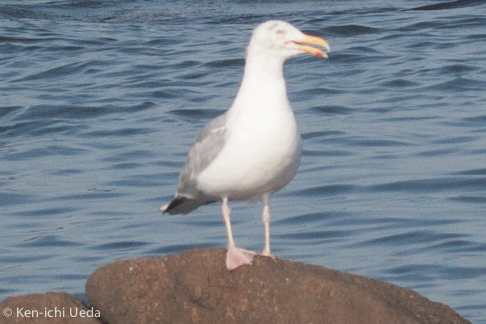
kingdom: Animalia
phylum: Chordata
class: Aves
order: Charadriiformes
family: Laridae
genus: Larus
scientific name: Larus argentatus
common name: Herring gull
